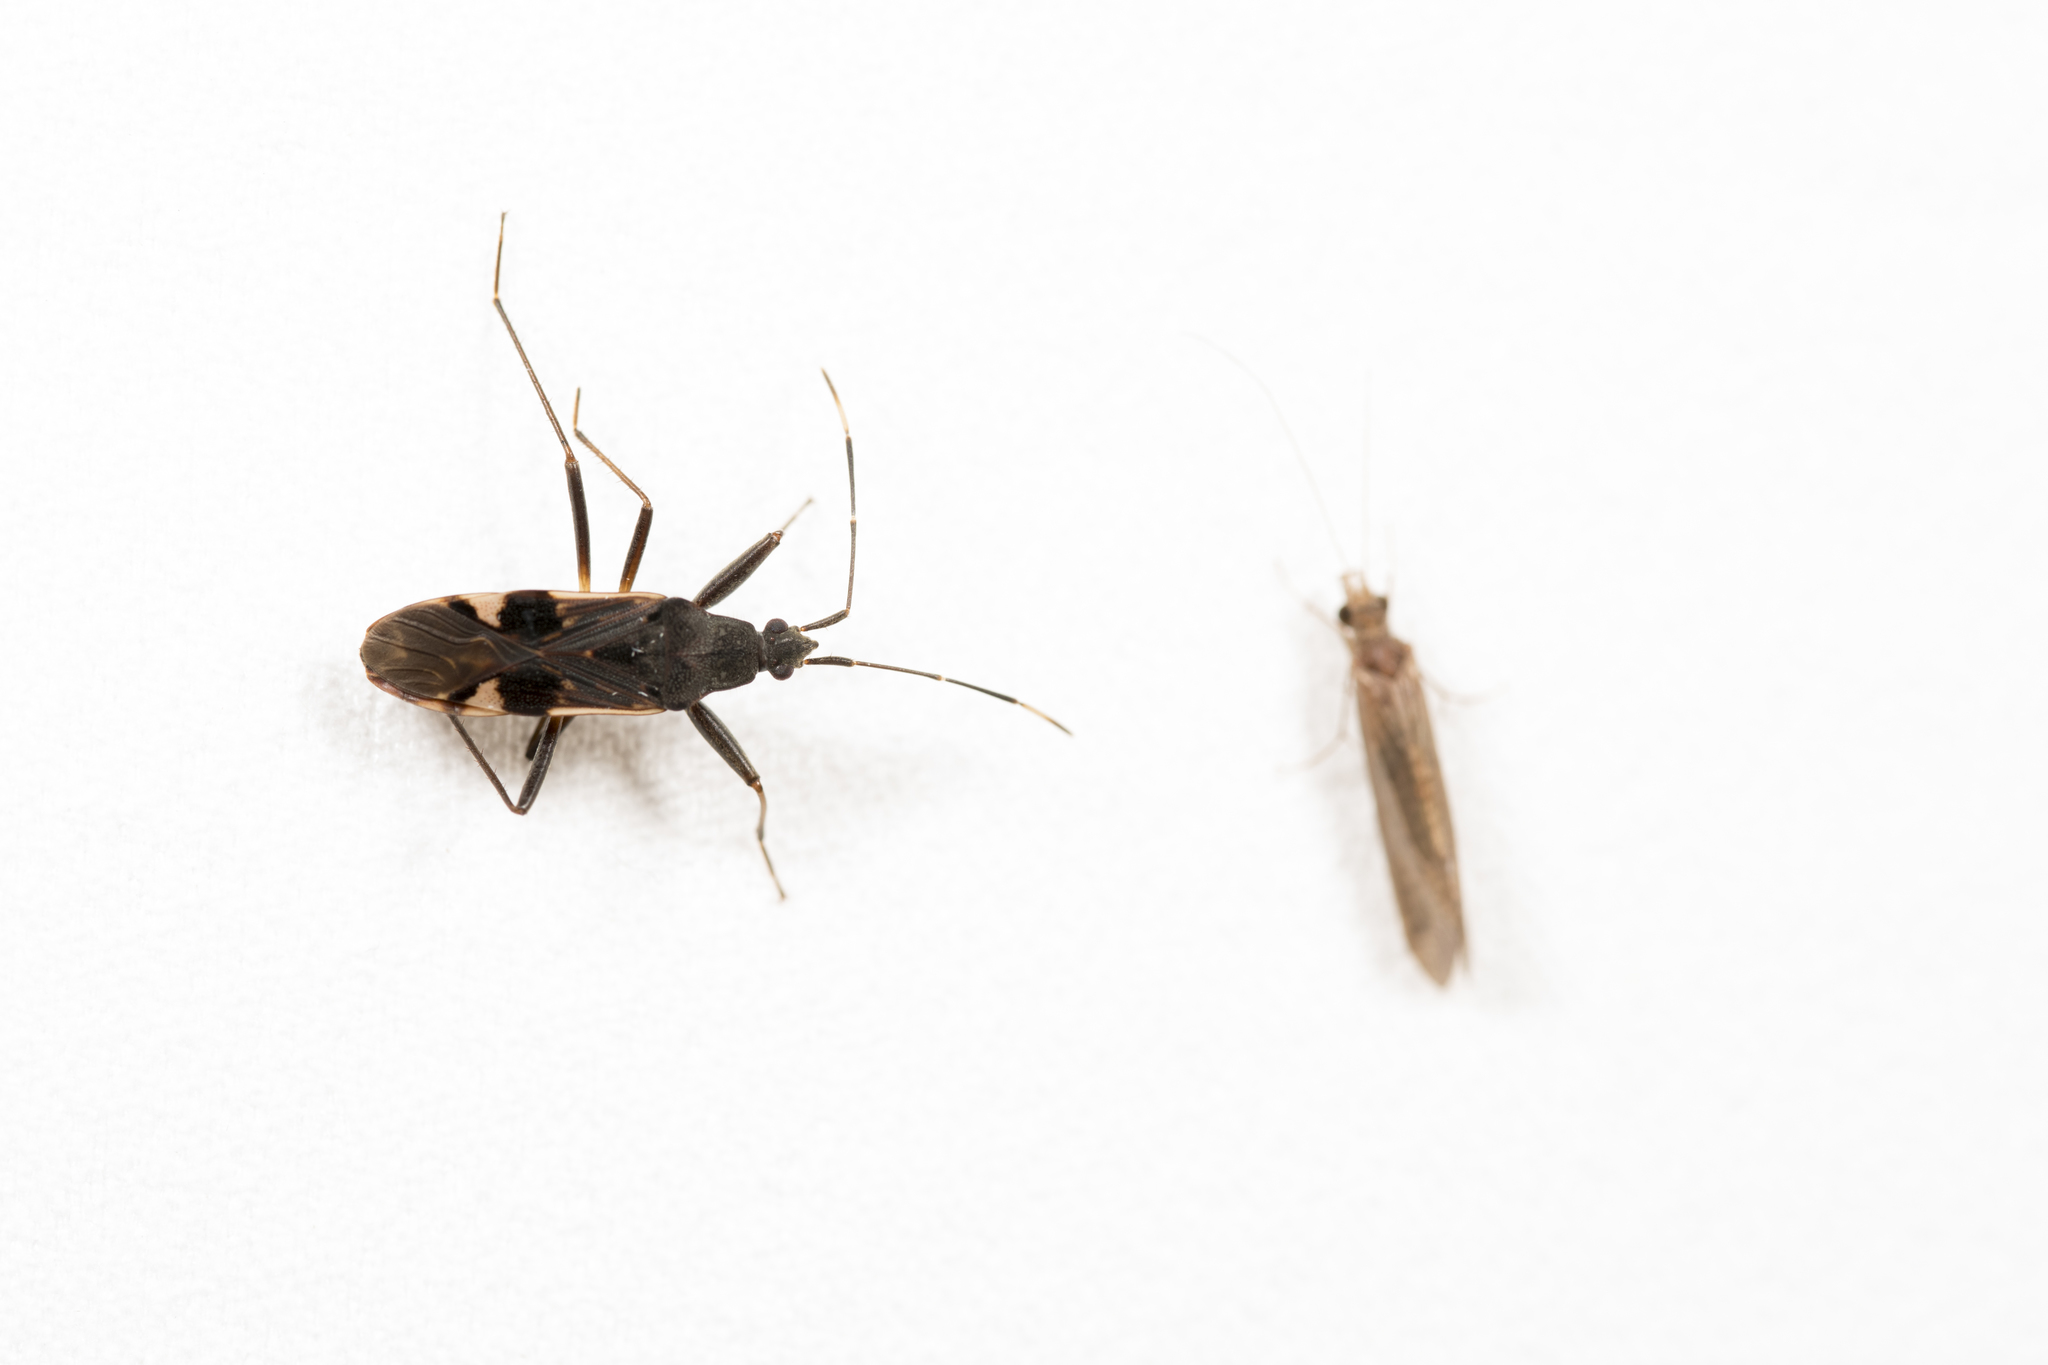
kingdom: Animalia
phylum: Arthropoda
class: Insecta
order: Hemiptera
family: Rhyparochromidae
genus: Metochus
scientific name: Metochus abbreviatus
